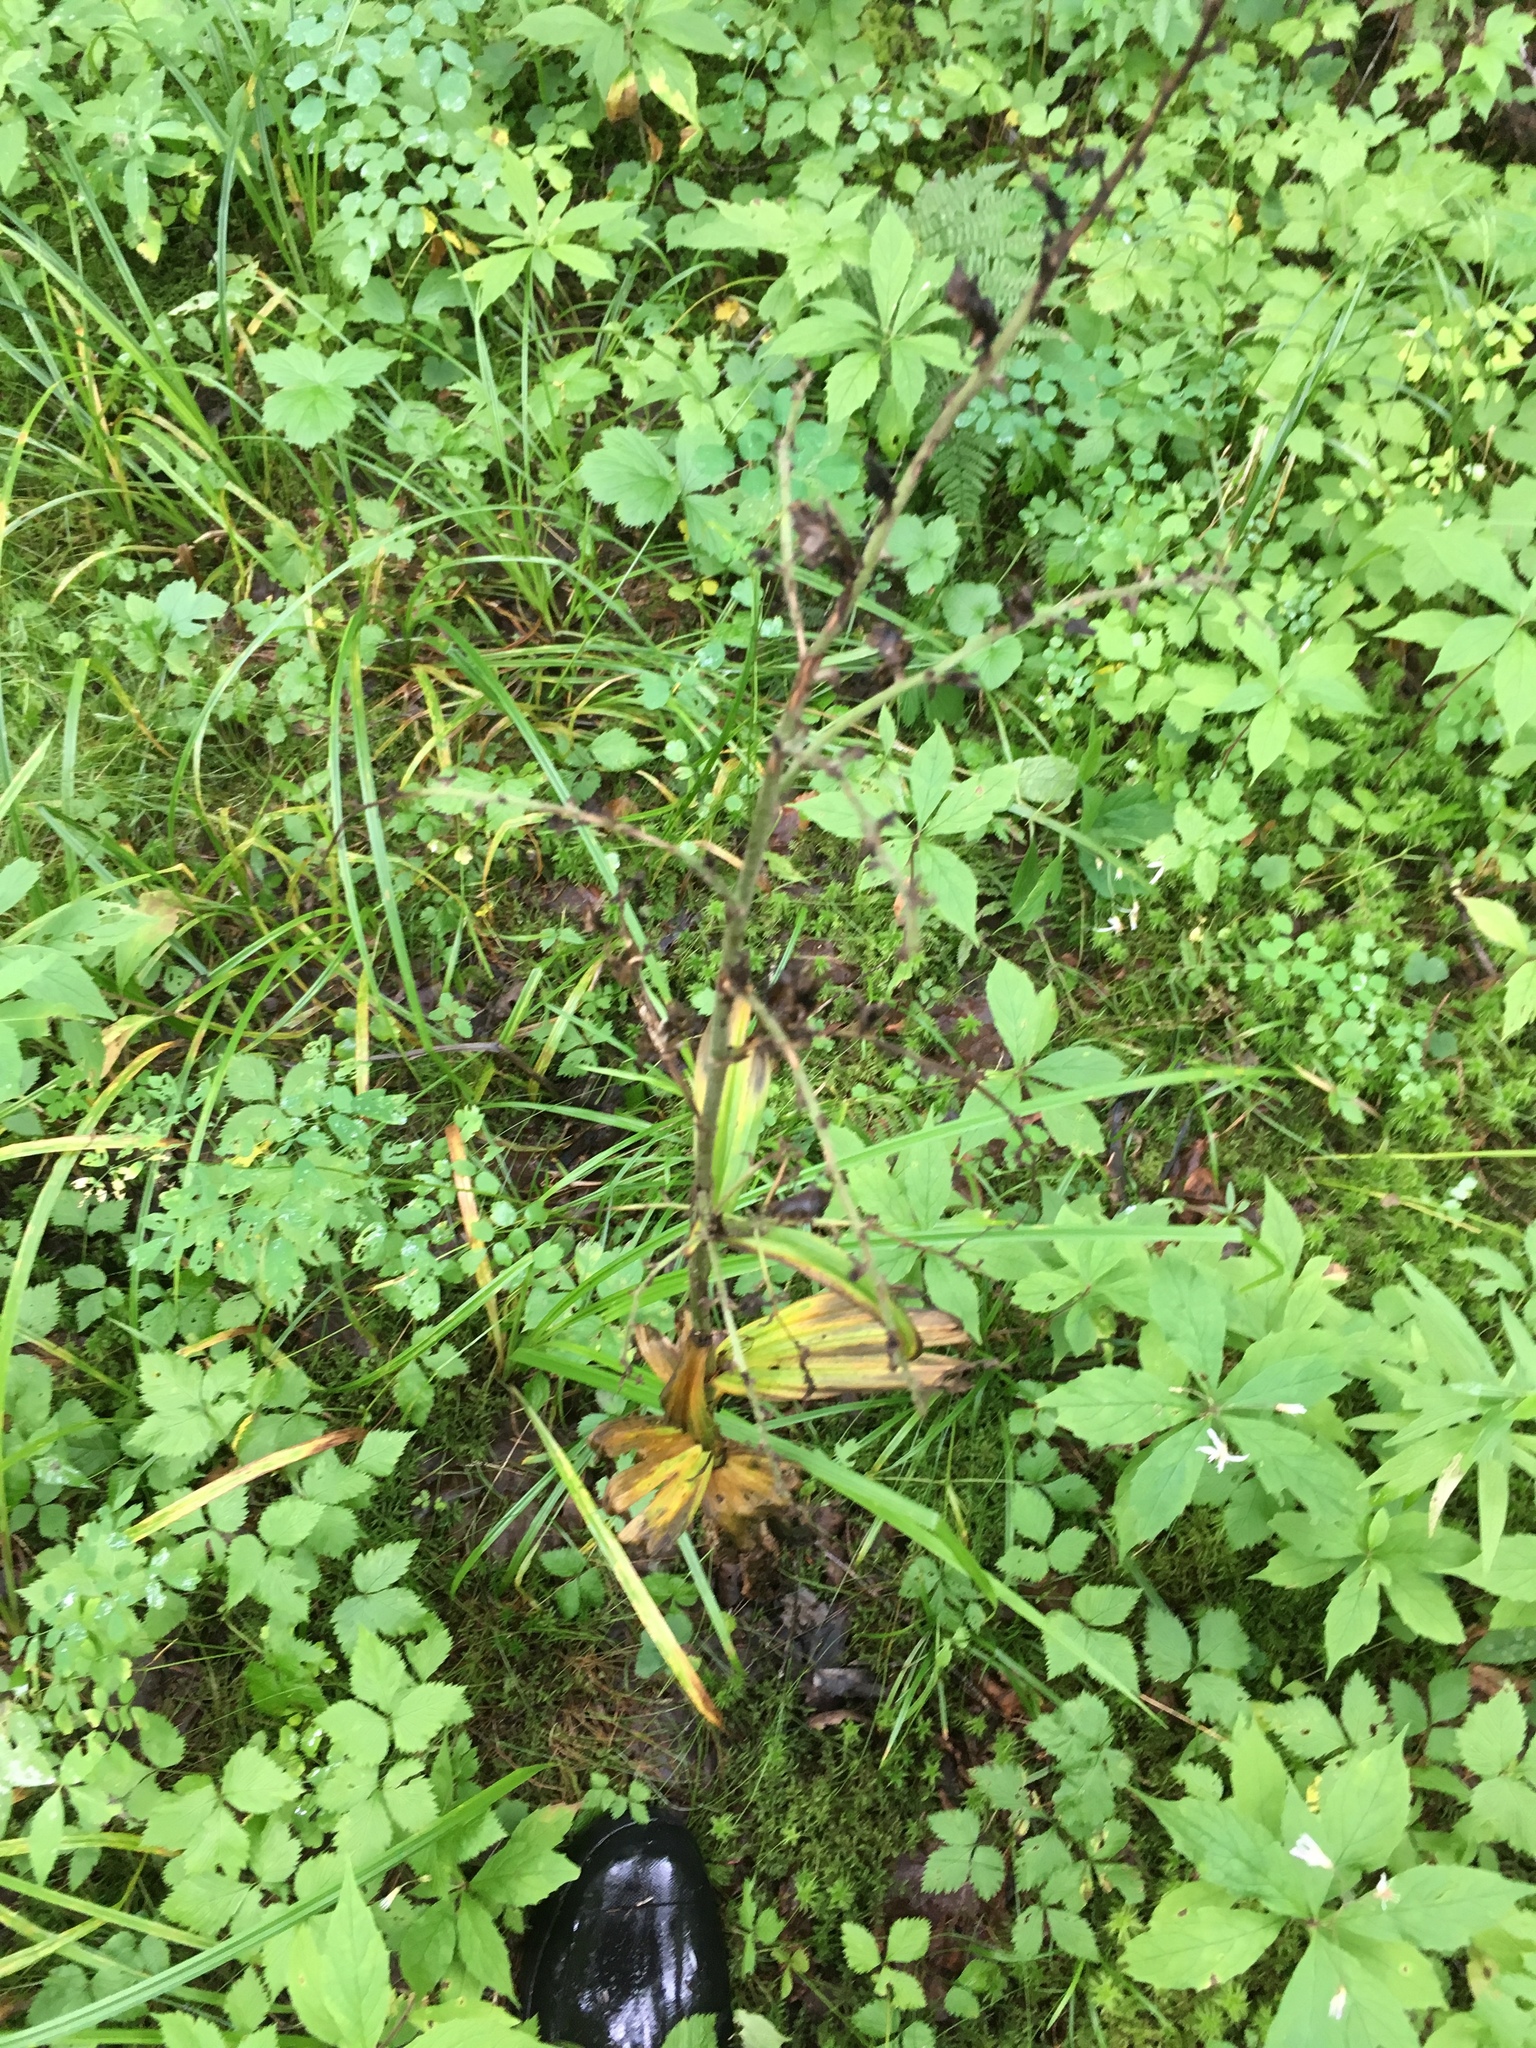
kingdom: Plantae
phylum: Tracheophyta
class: Liliopsida
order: Liliales
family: Melanthiaceae
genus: Veratrum
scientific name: Veratrum viride
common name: American false hellebore
